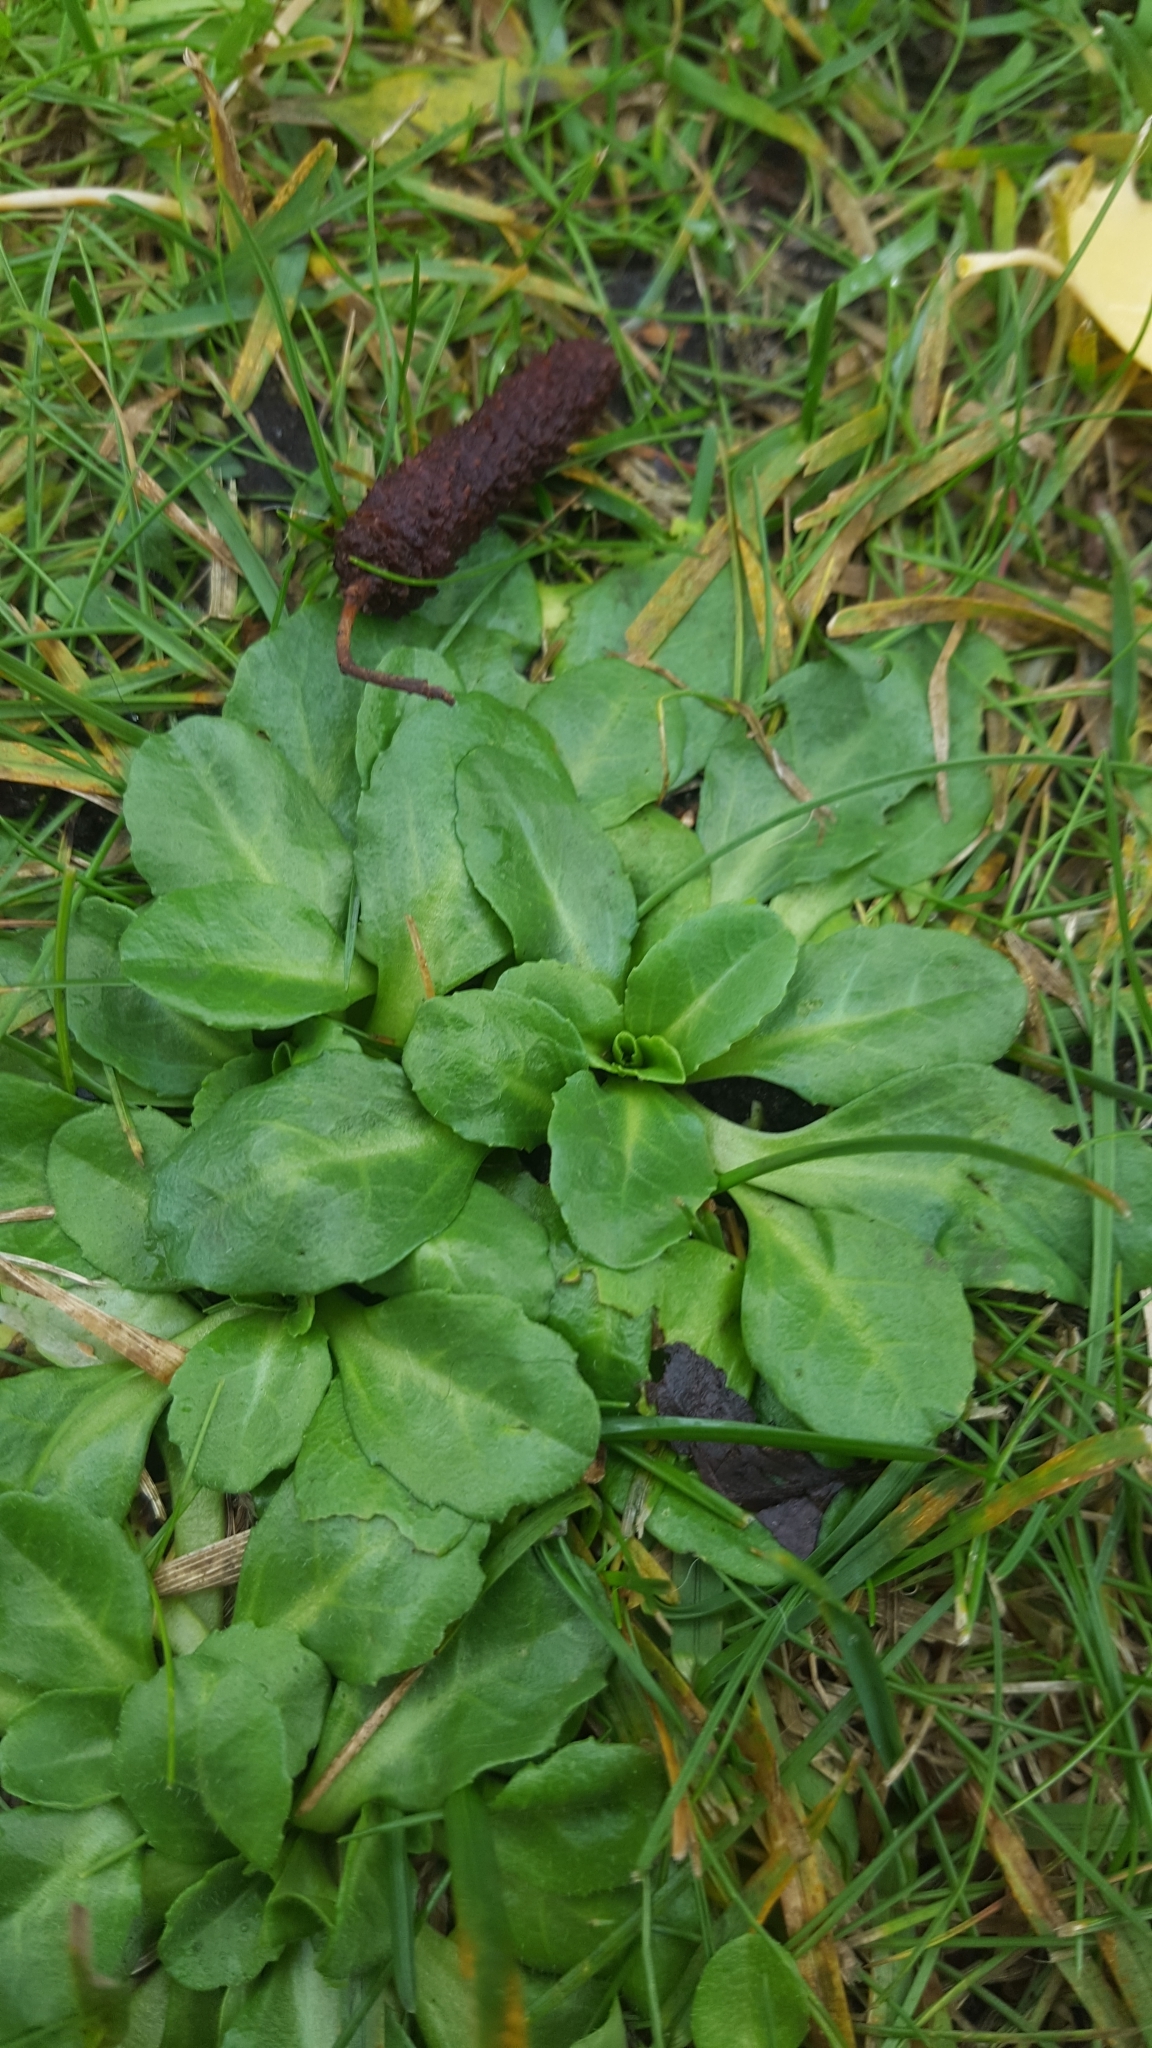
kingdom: Plantae
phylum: Tracheophyta
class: Magnoliopsida
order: Asterales
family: Asteraceae
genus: Bellis
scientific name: Bellis perennis
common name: Lawndaisy
